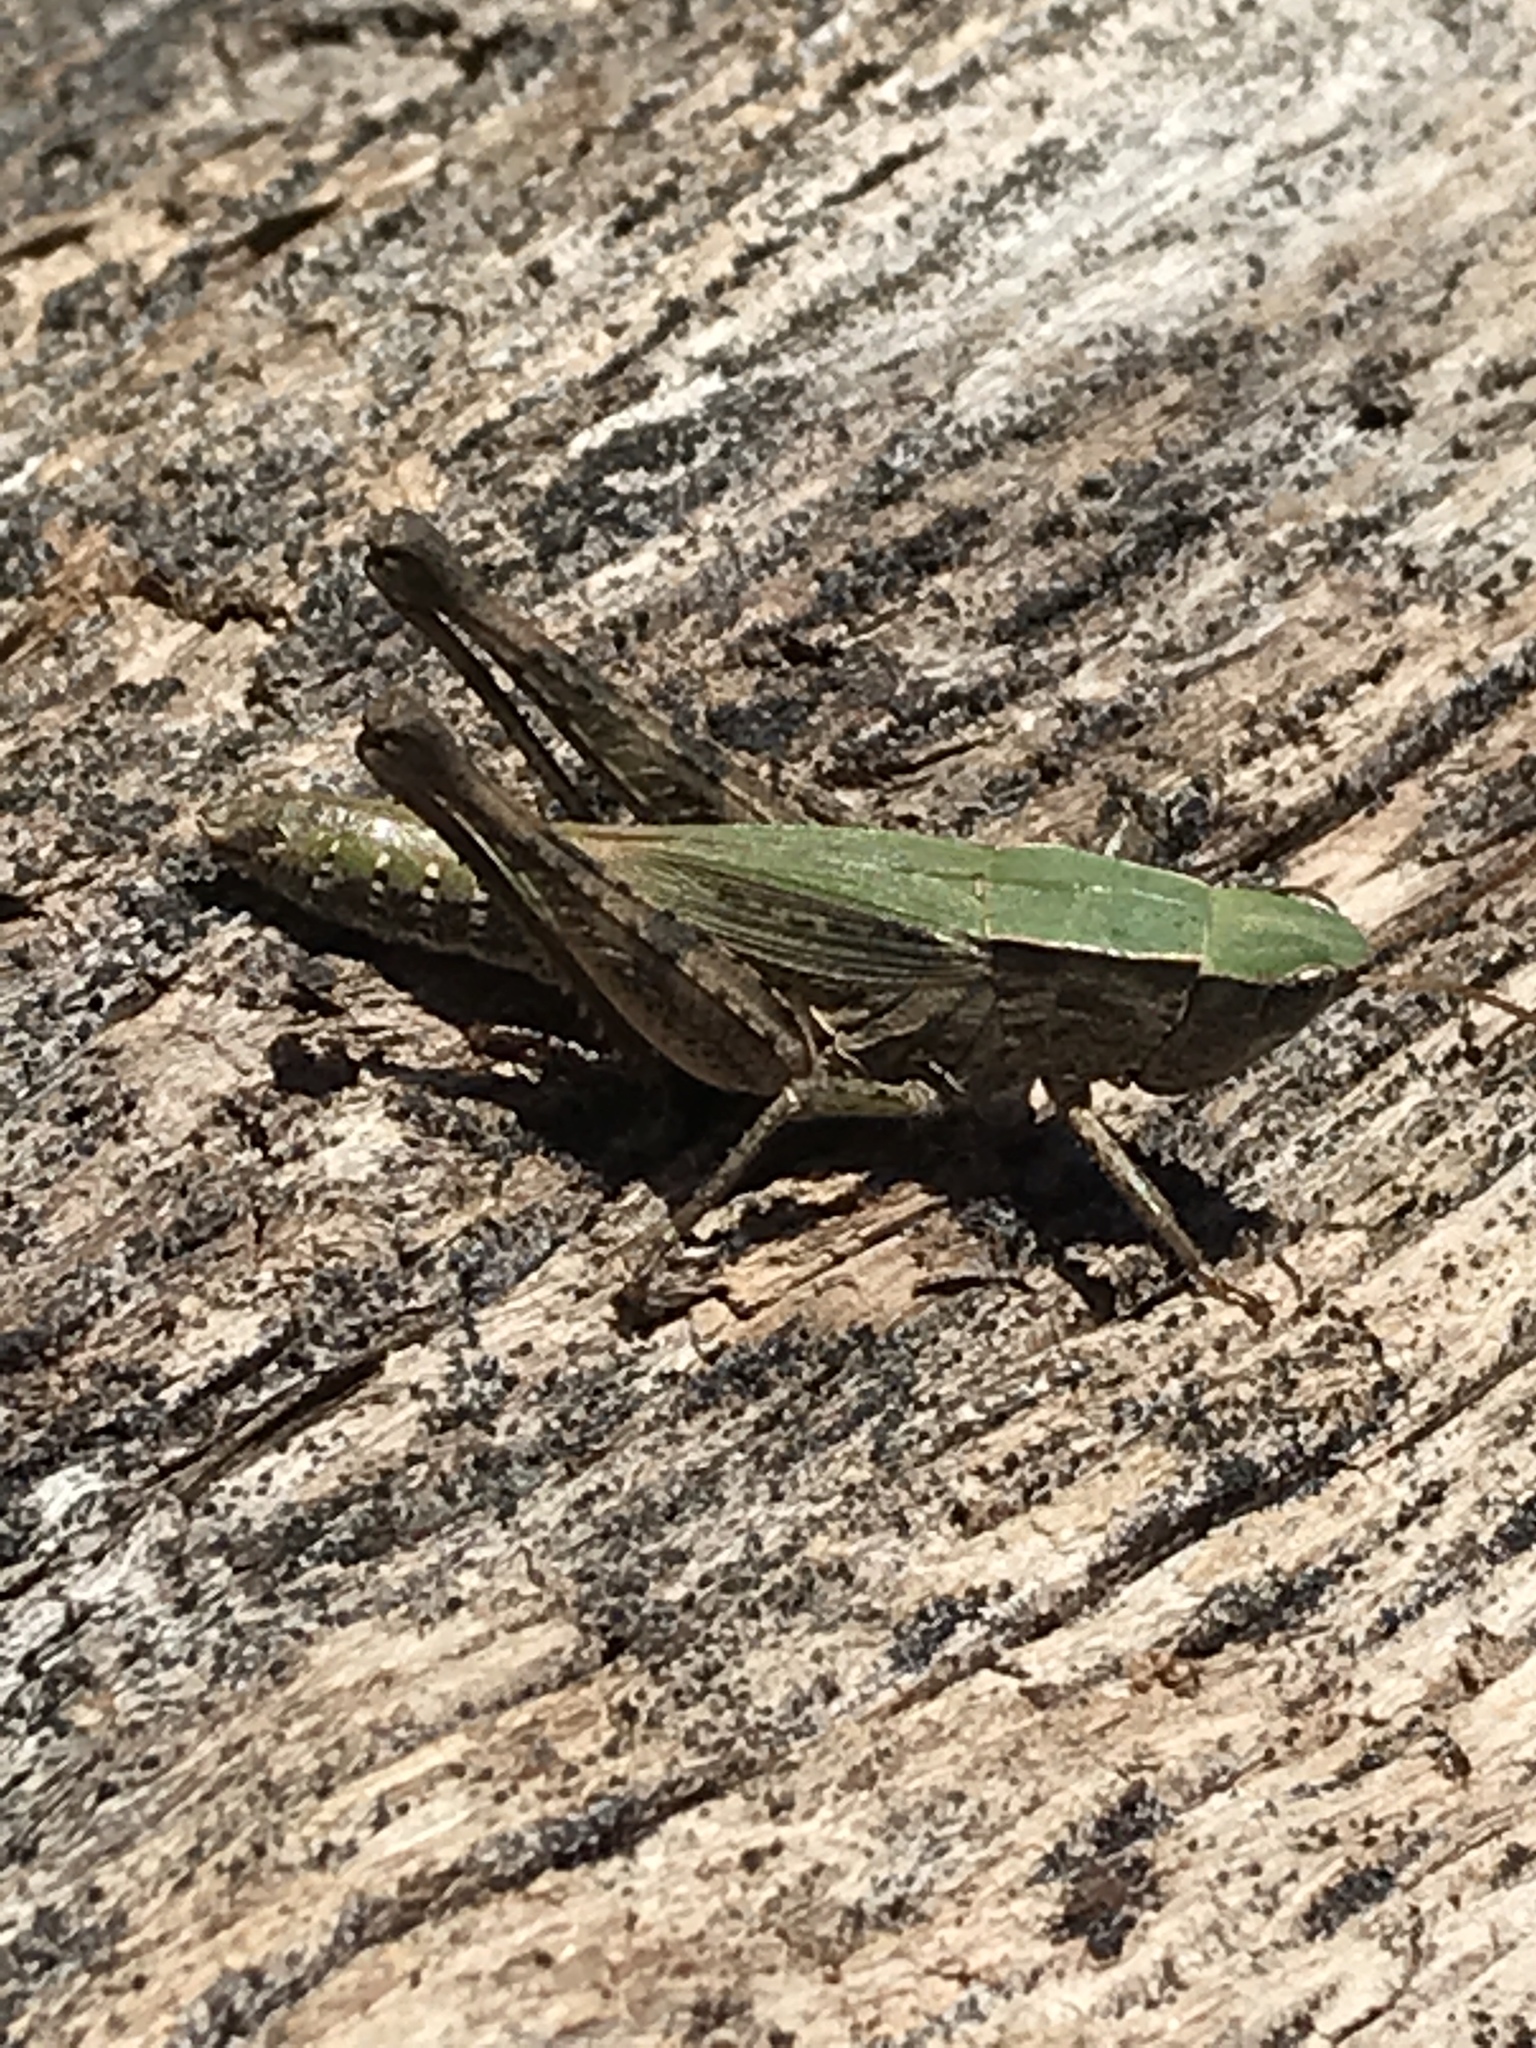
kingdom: Animalia
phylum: Arthropoda
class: Insecta
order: Orthoptera
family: Acrididae
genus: Dichromorpha
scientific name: Dichromorpha viridis
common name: Short-winged green grasshopper
